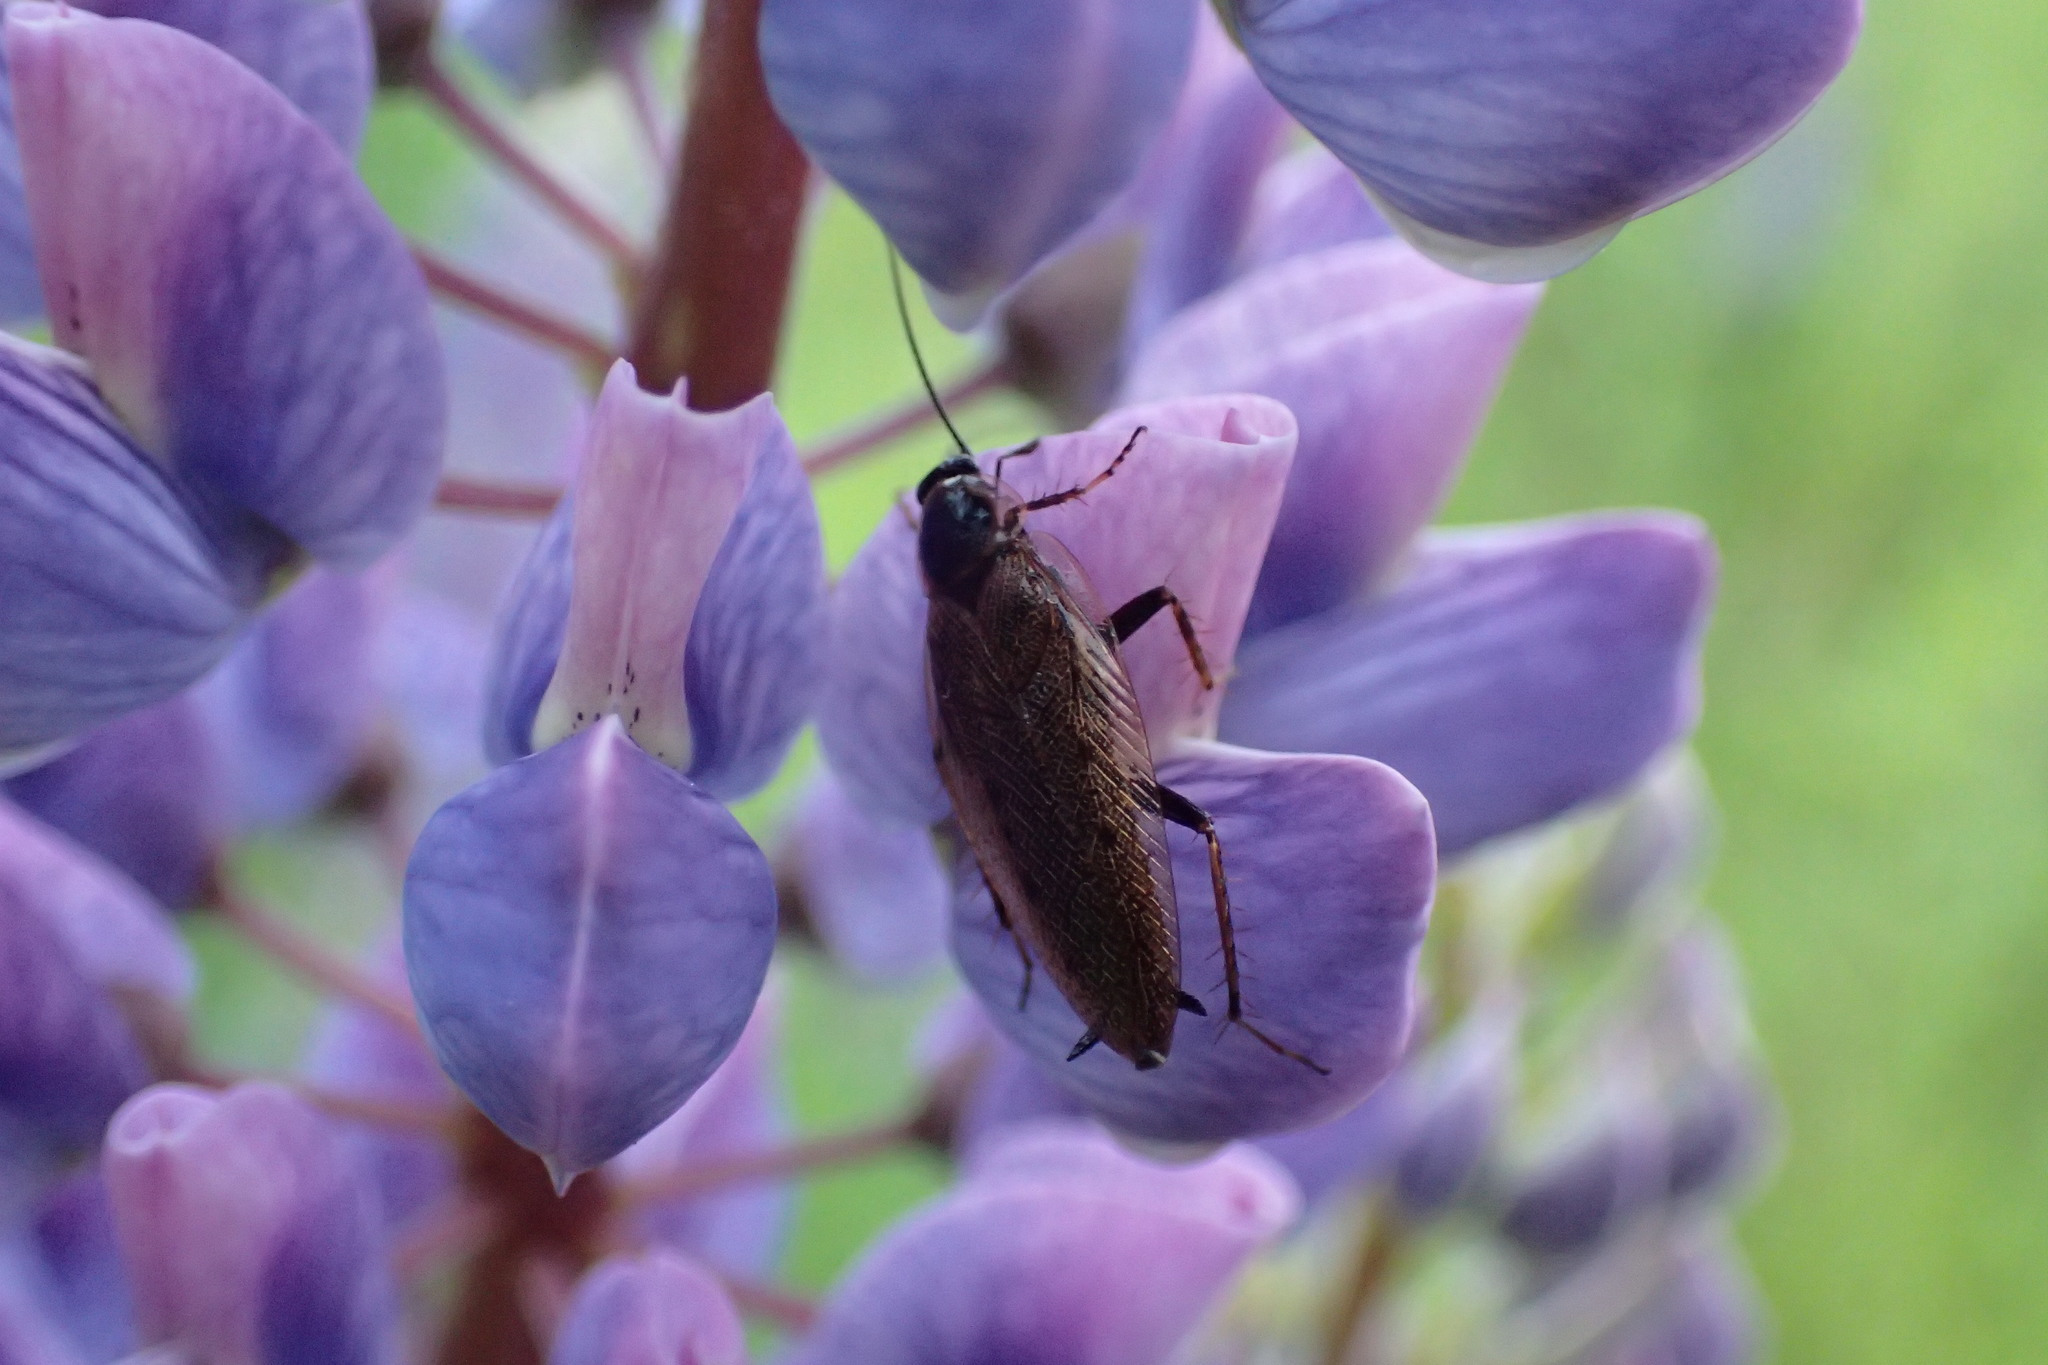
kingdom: Animalia
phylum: Arthropoda
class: Insecta
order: Blattodea
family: Ectobiidae
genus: Ectobius
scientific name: Ectobius lapponicus
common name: Dusky cockroach
